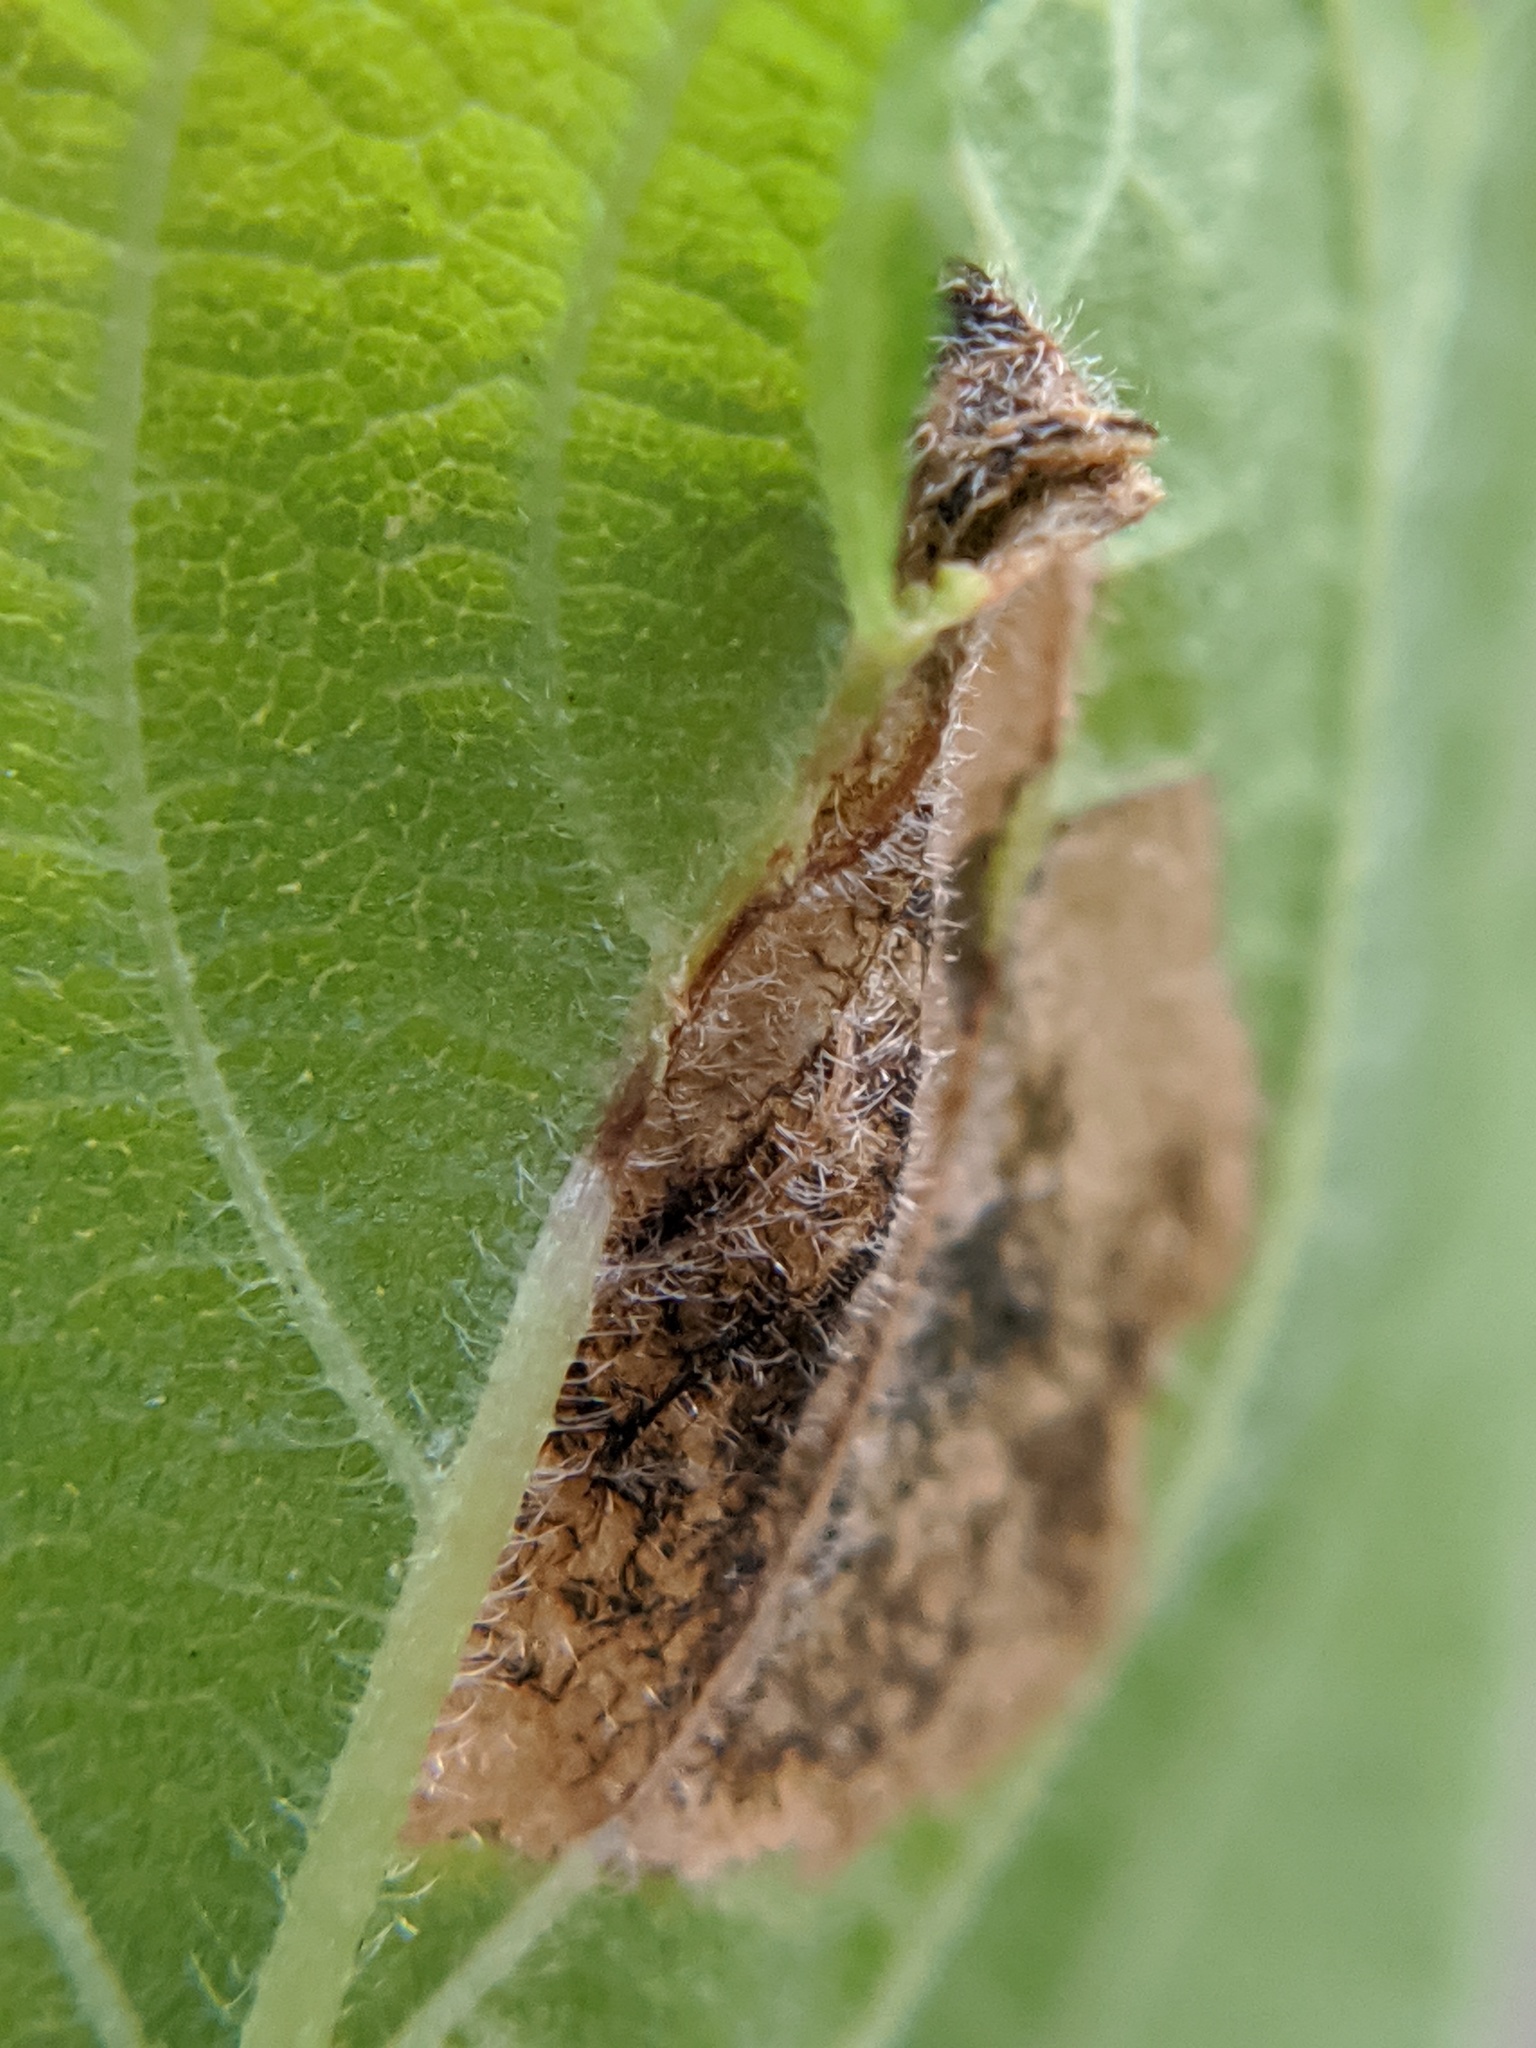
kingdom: Animalia
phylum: Arthropoda
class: Insecta
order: Coleoptera
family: Curculionidae
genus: Orchestes
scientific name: Orchestes steppensis
